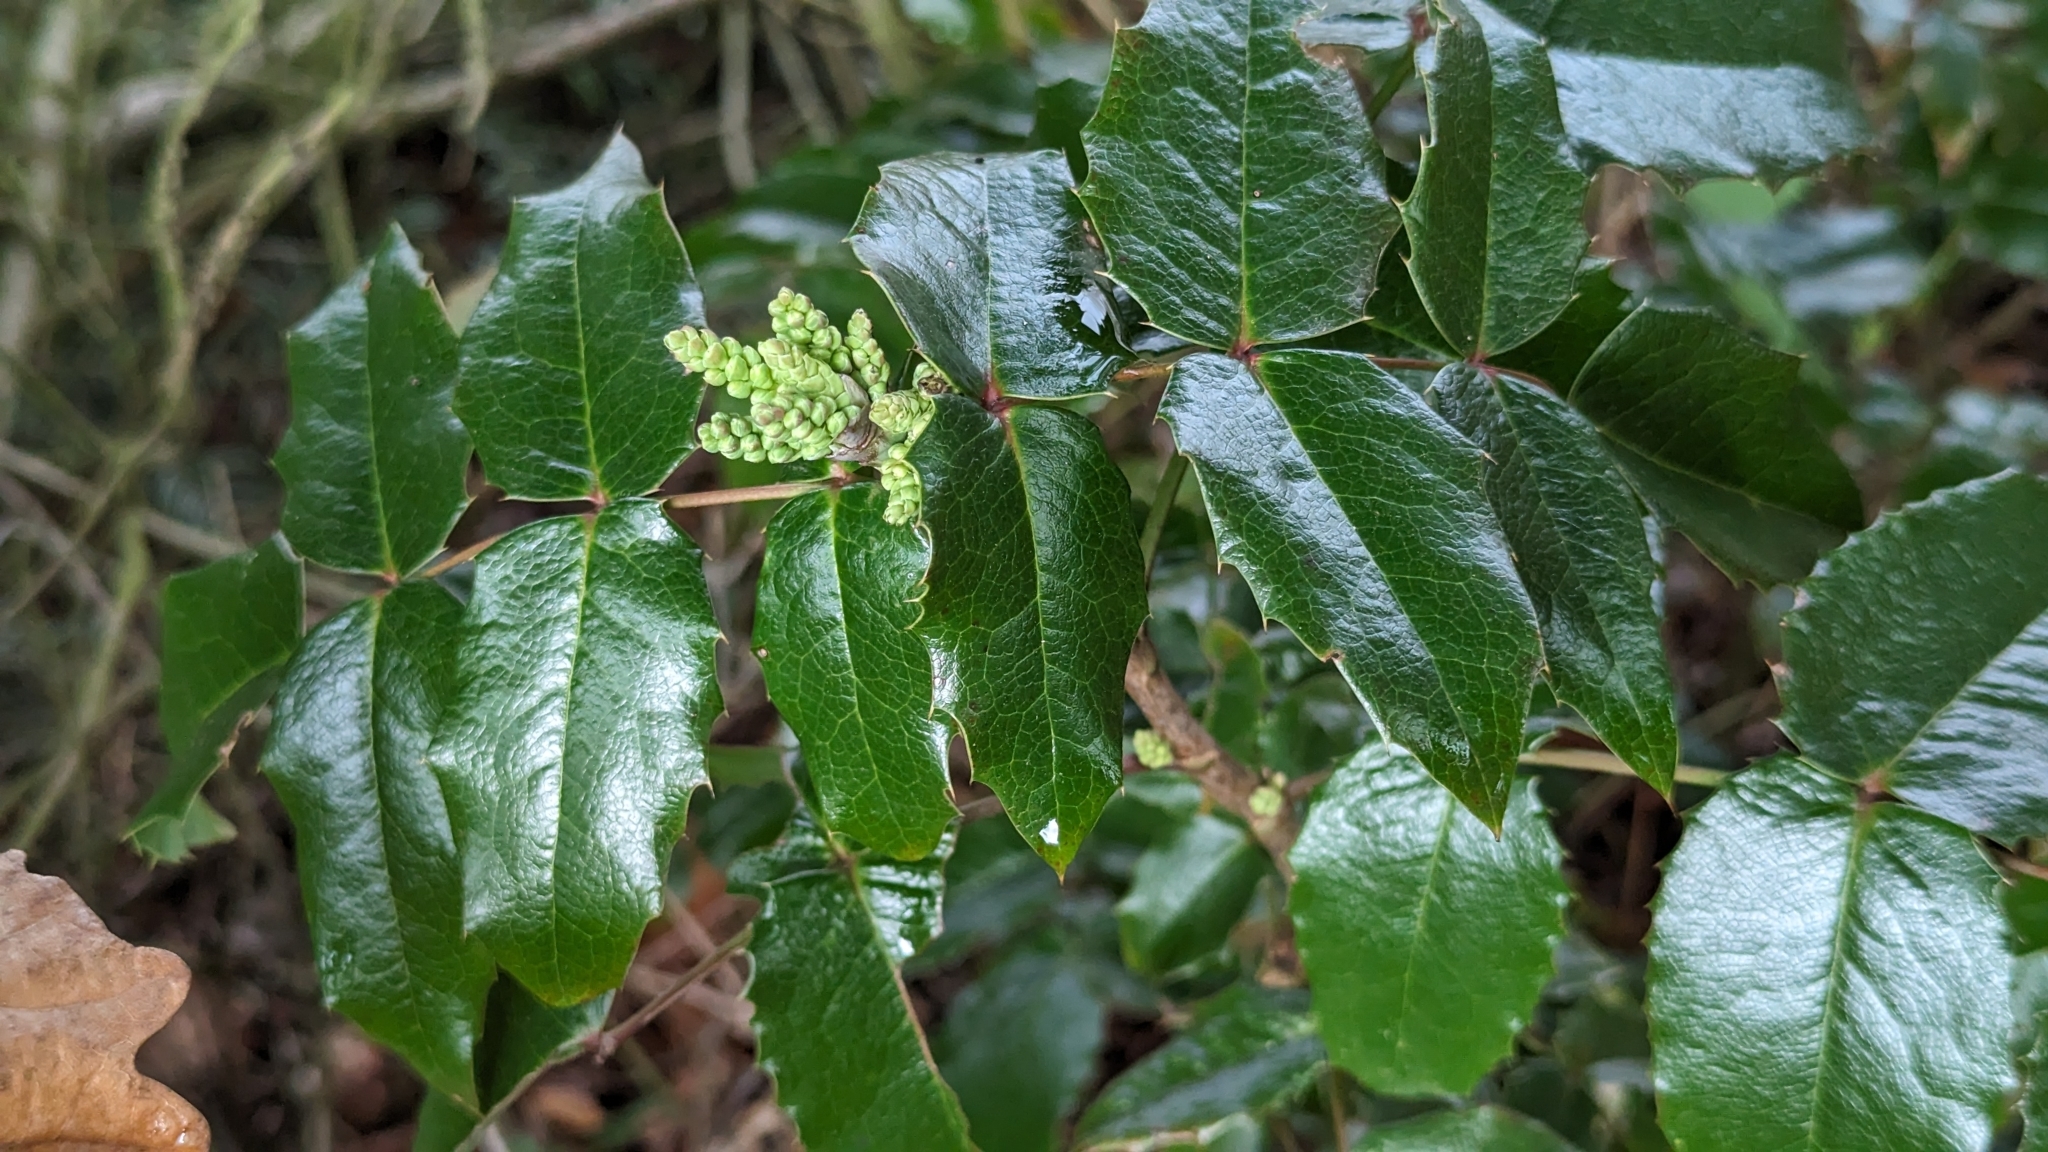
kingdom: Plantae
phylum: Tracheophyta
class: Magnoliopsida
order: Ranunculales
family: Berberidaceae
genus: Mahonia
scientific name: Mahonia aquifolium
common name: Oregon-grape
